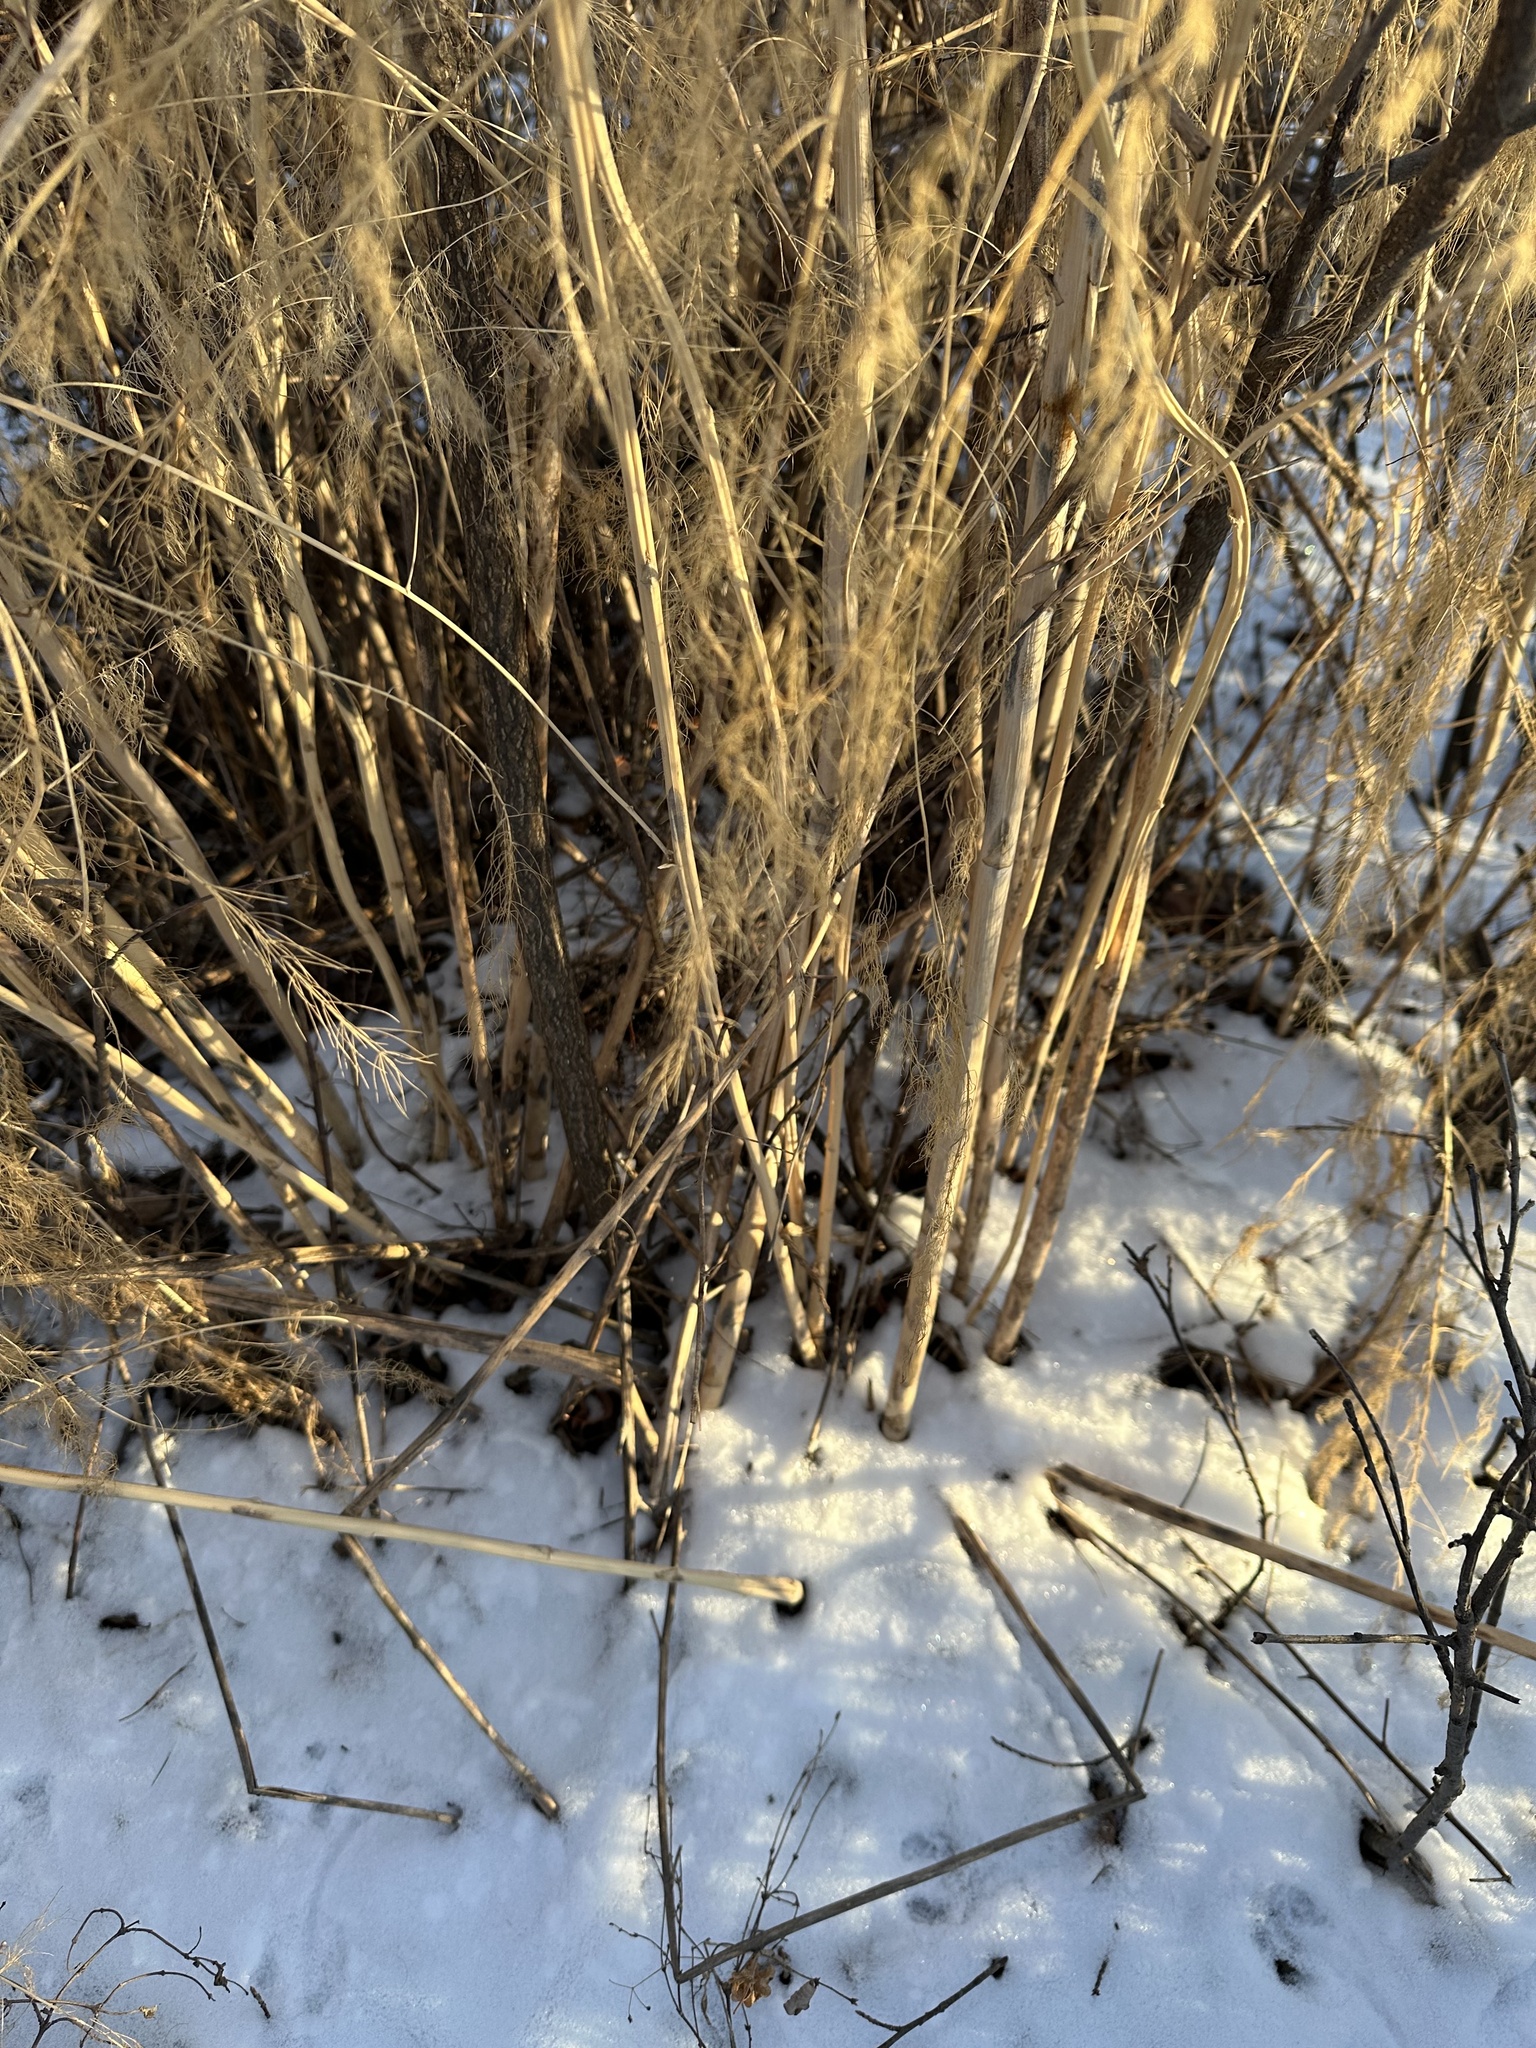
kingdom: Plantae
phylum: Tracheophyta
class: Liliopsida
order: Asparagales
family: Asparagaceae
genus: Asparagus
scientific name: Asparagus officinalis
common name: Garden asparagus
